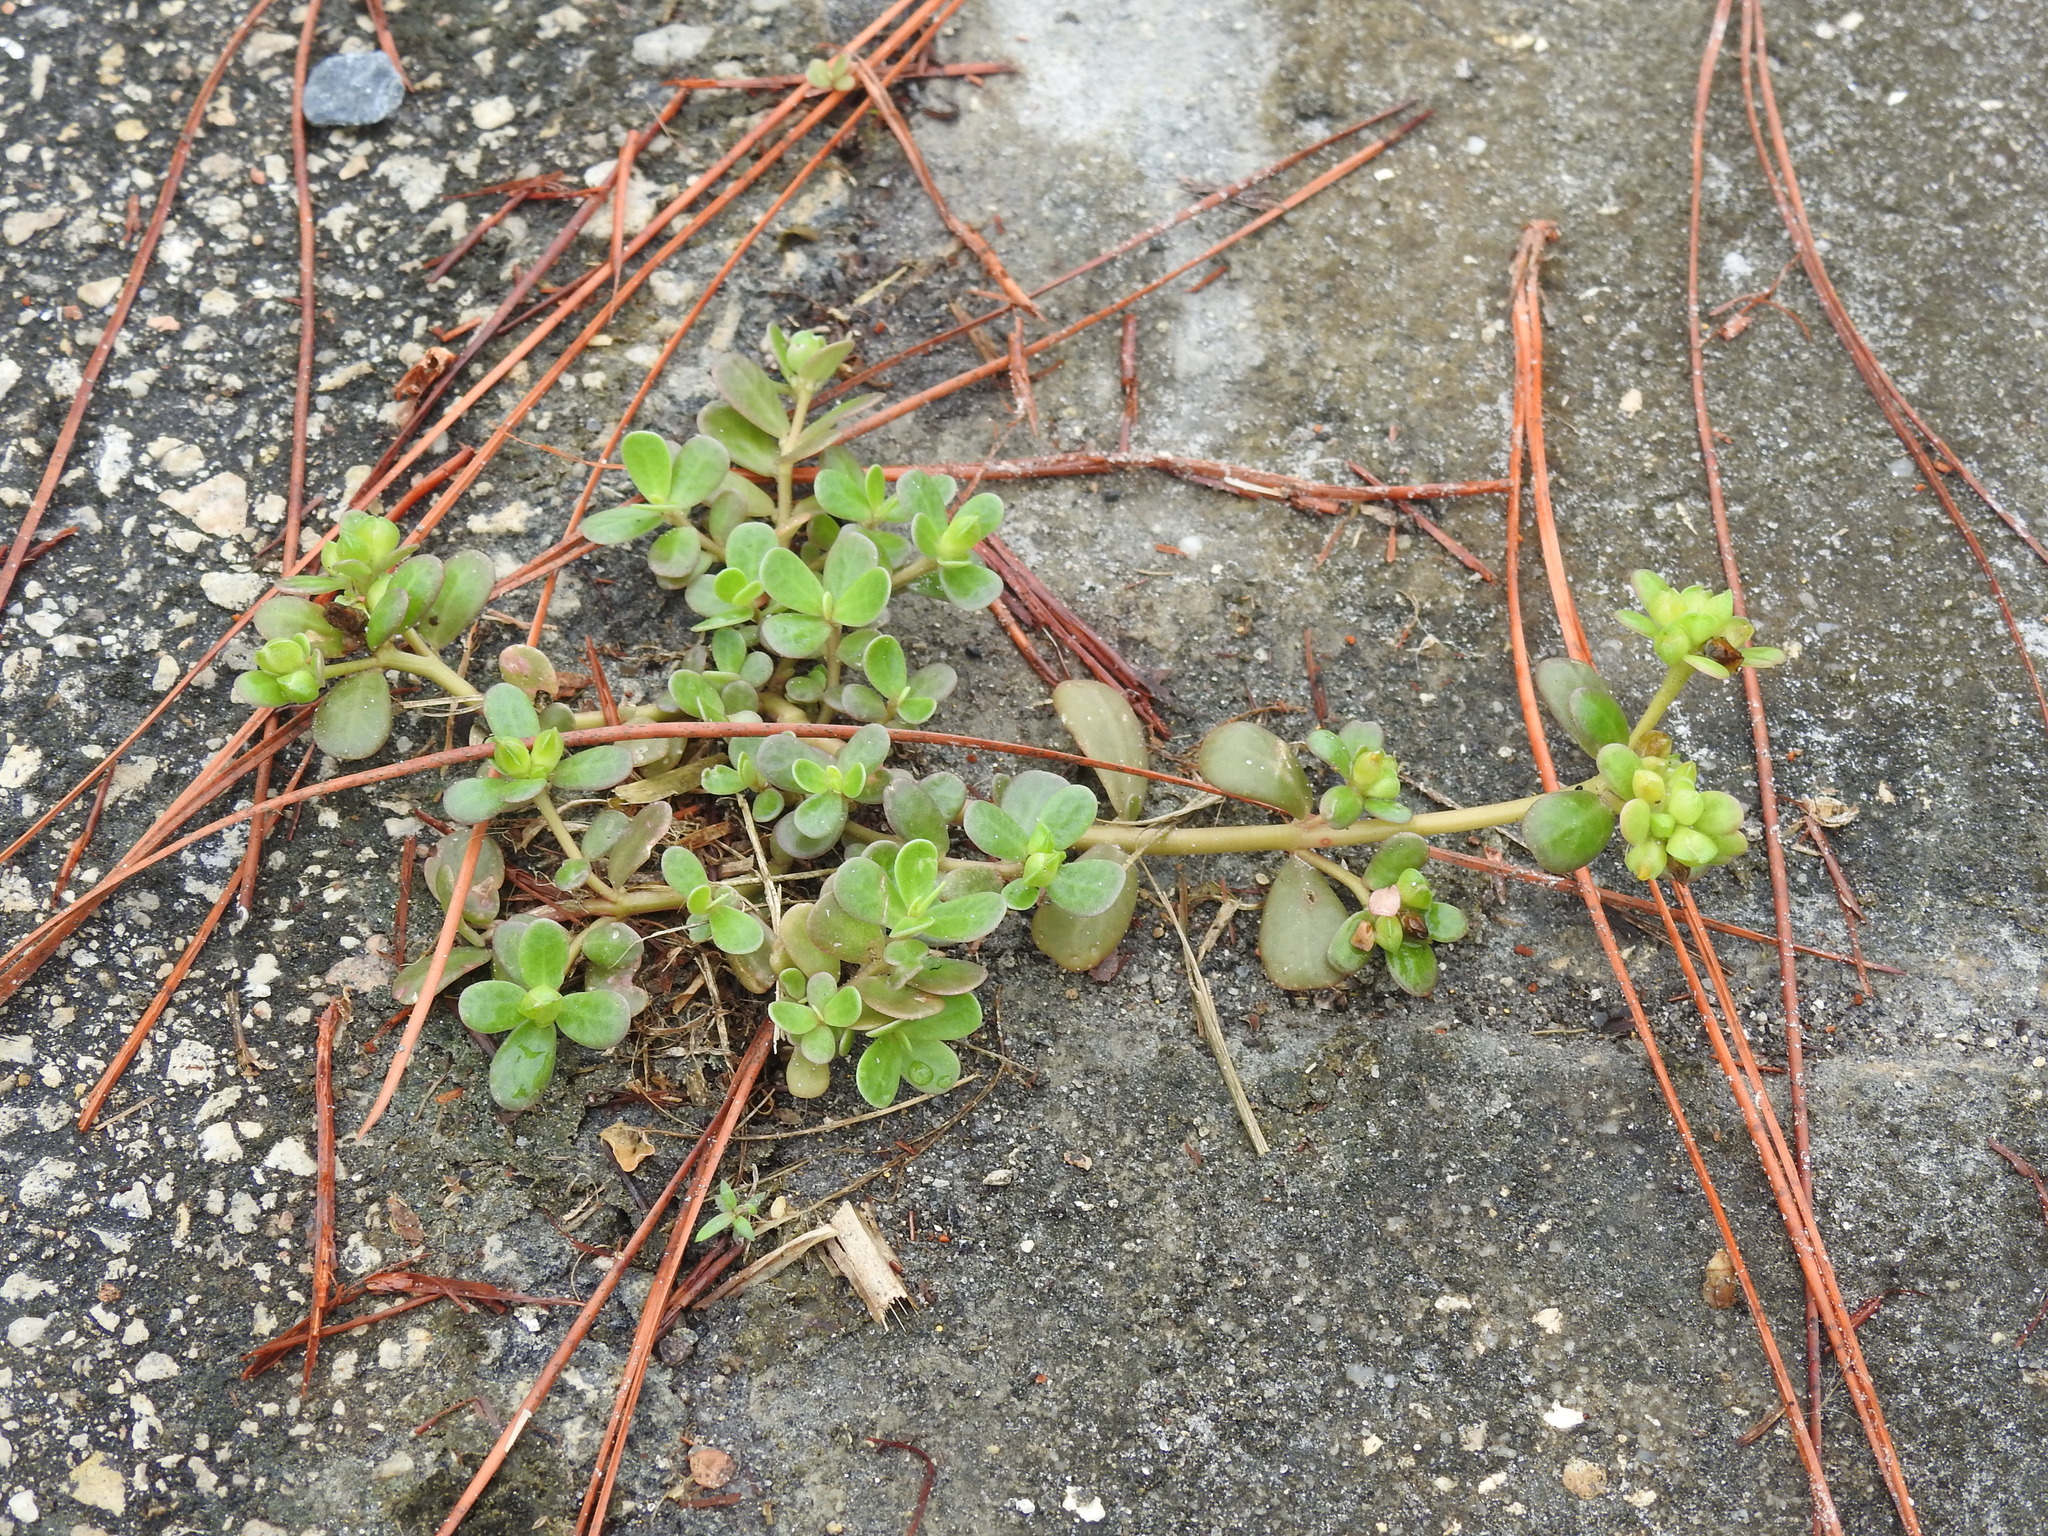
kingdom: Plantae
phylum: Tracheophyta
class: Magnoliopsida
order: Caryophyllales
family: Portulacaceae
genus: Portulaca
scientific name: Portulaca oleracea
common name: Common purslane
